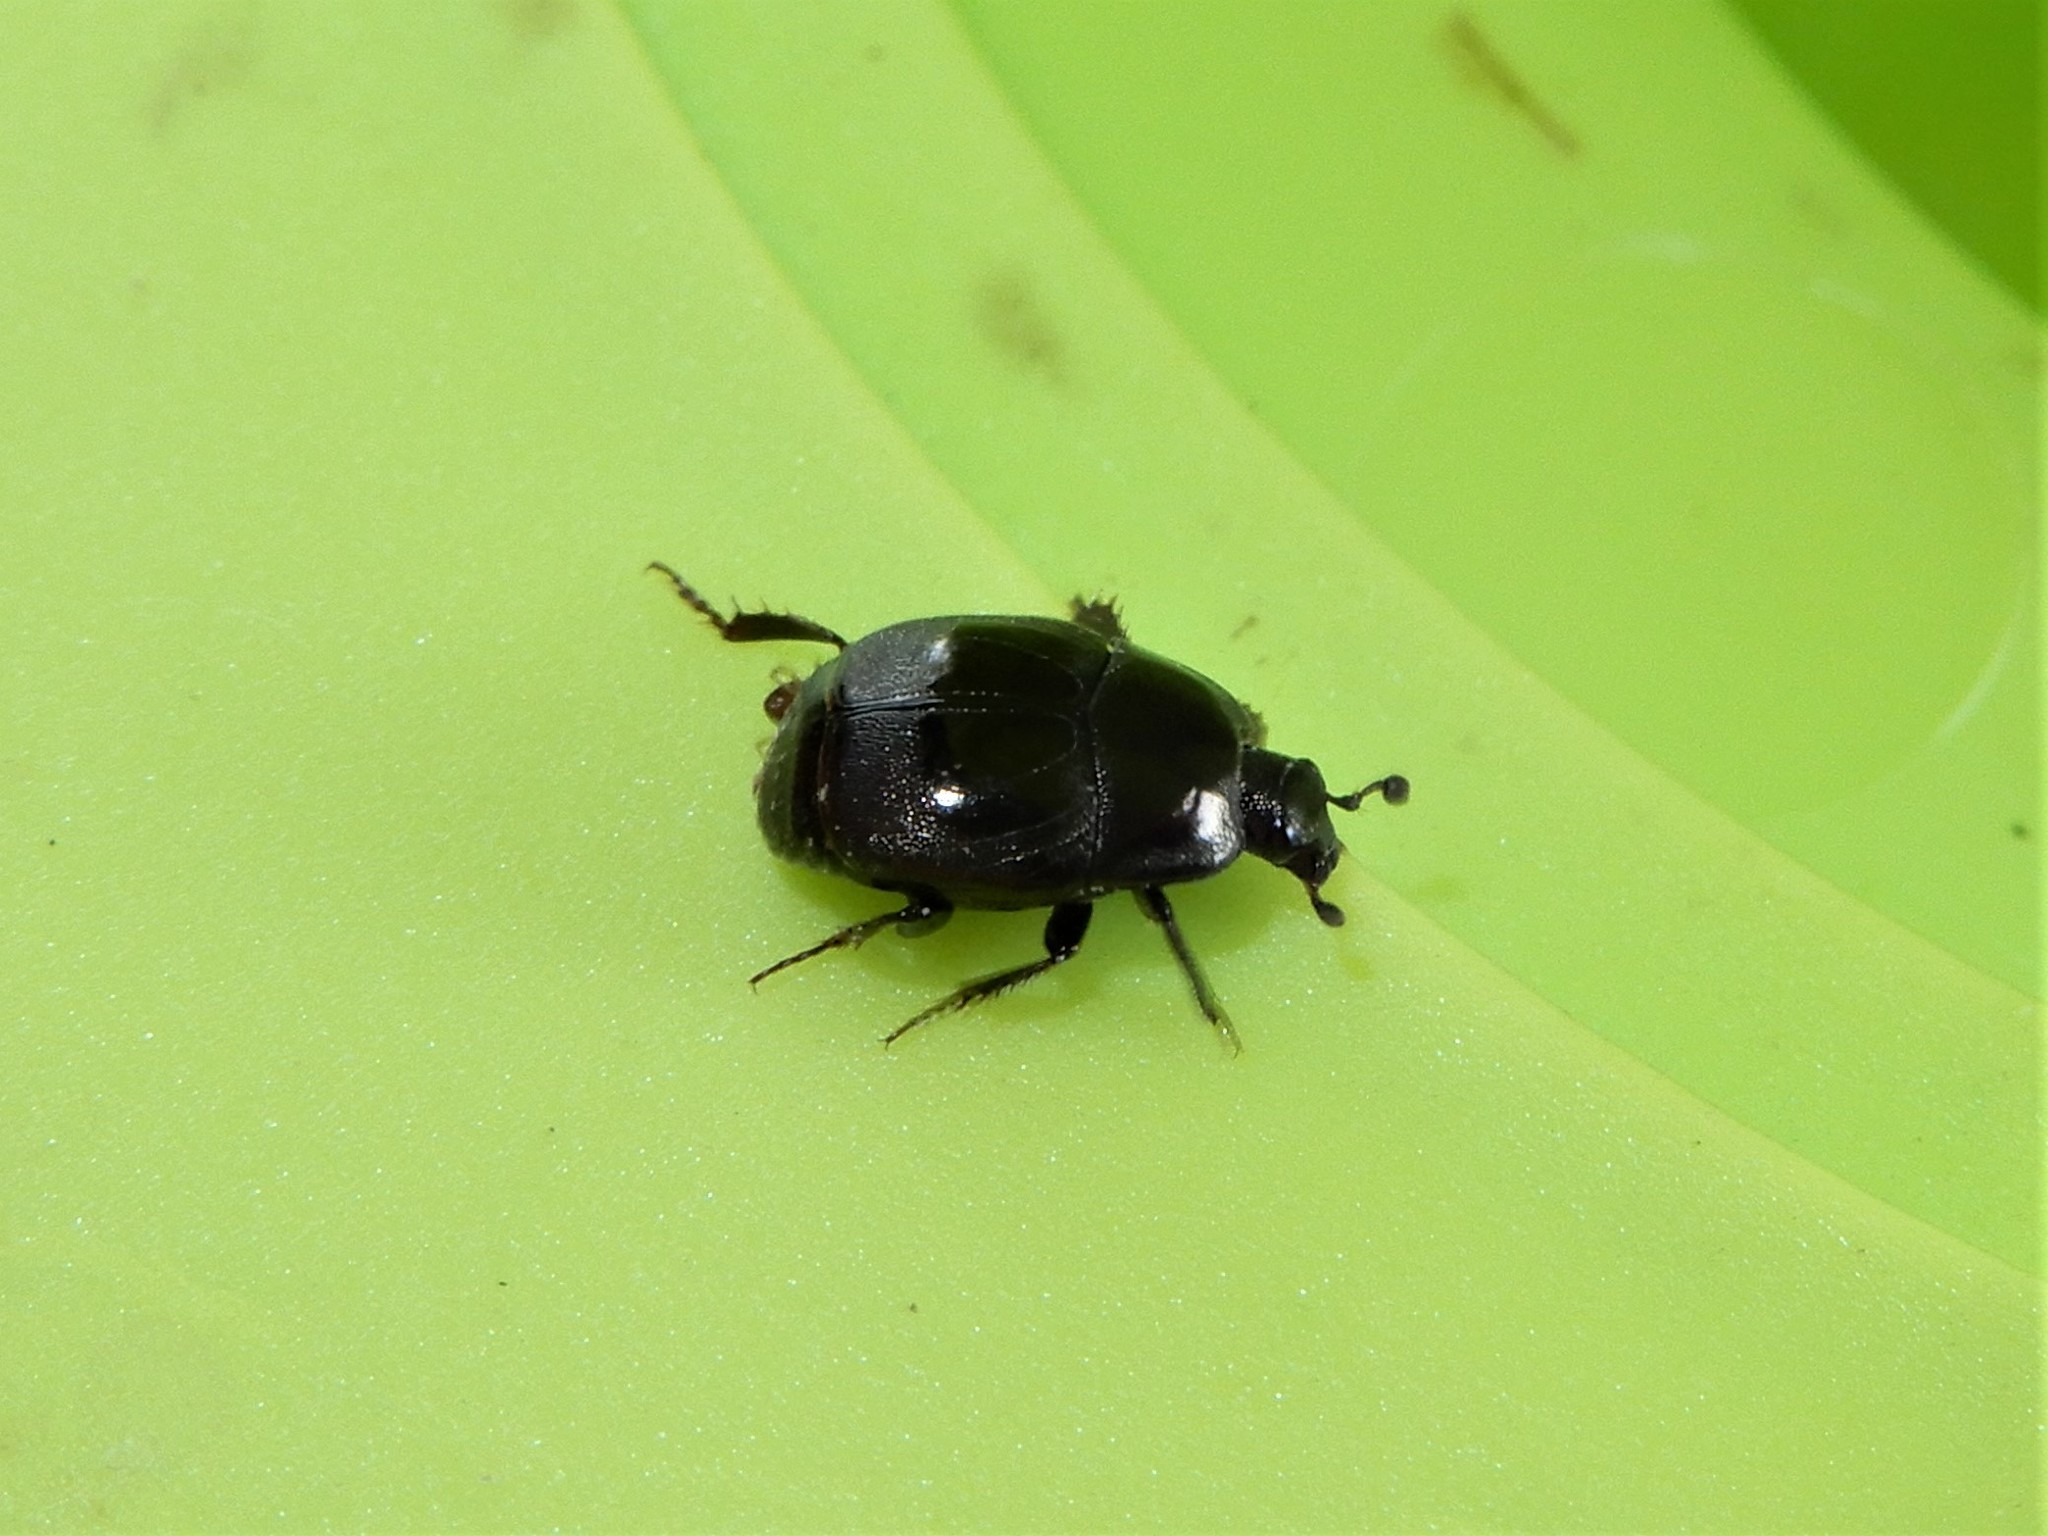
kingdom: Animalia
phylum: Arthropoda
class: Insecta
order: Coleoptera
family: Histeridae
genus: Saprinus
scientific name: Saprinus detritus
